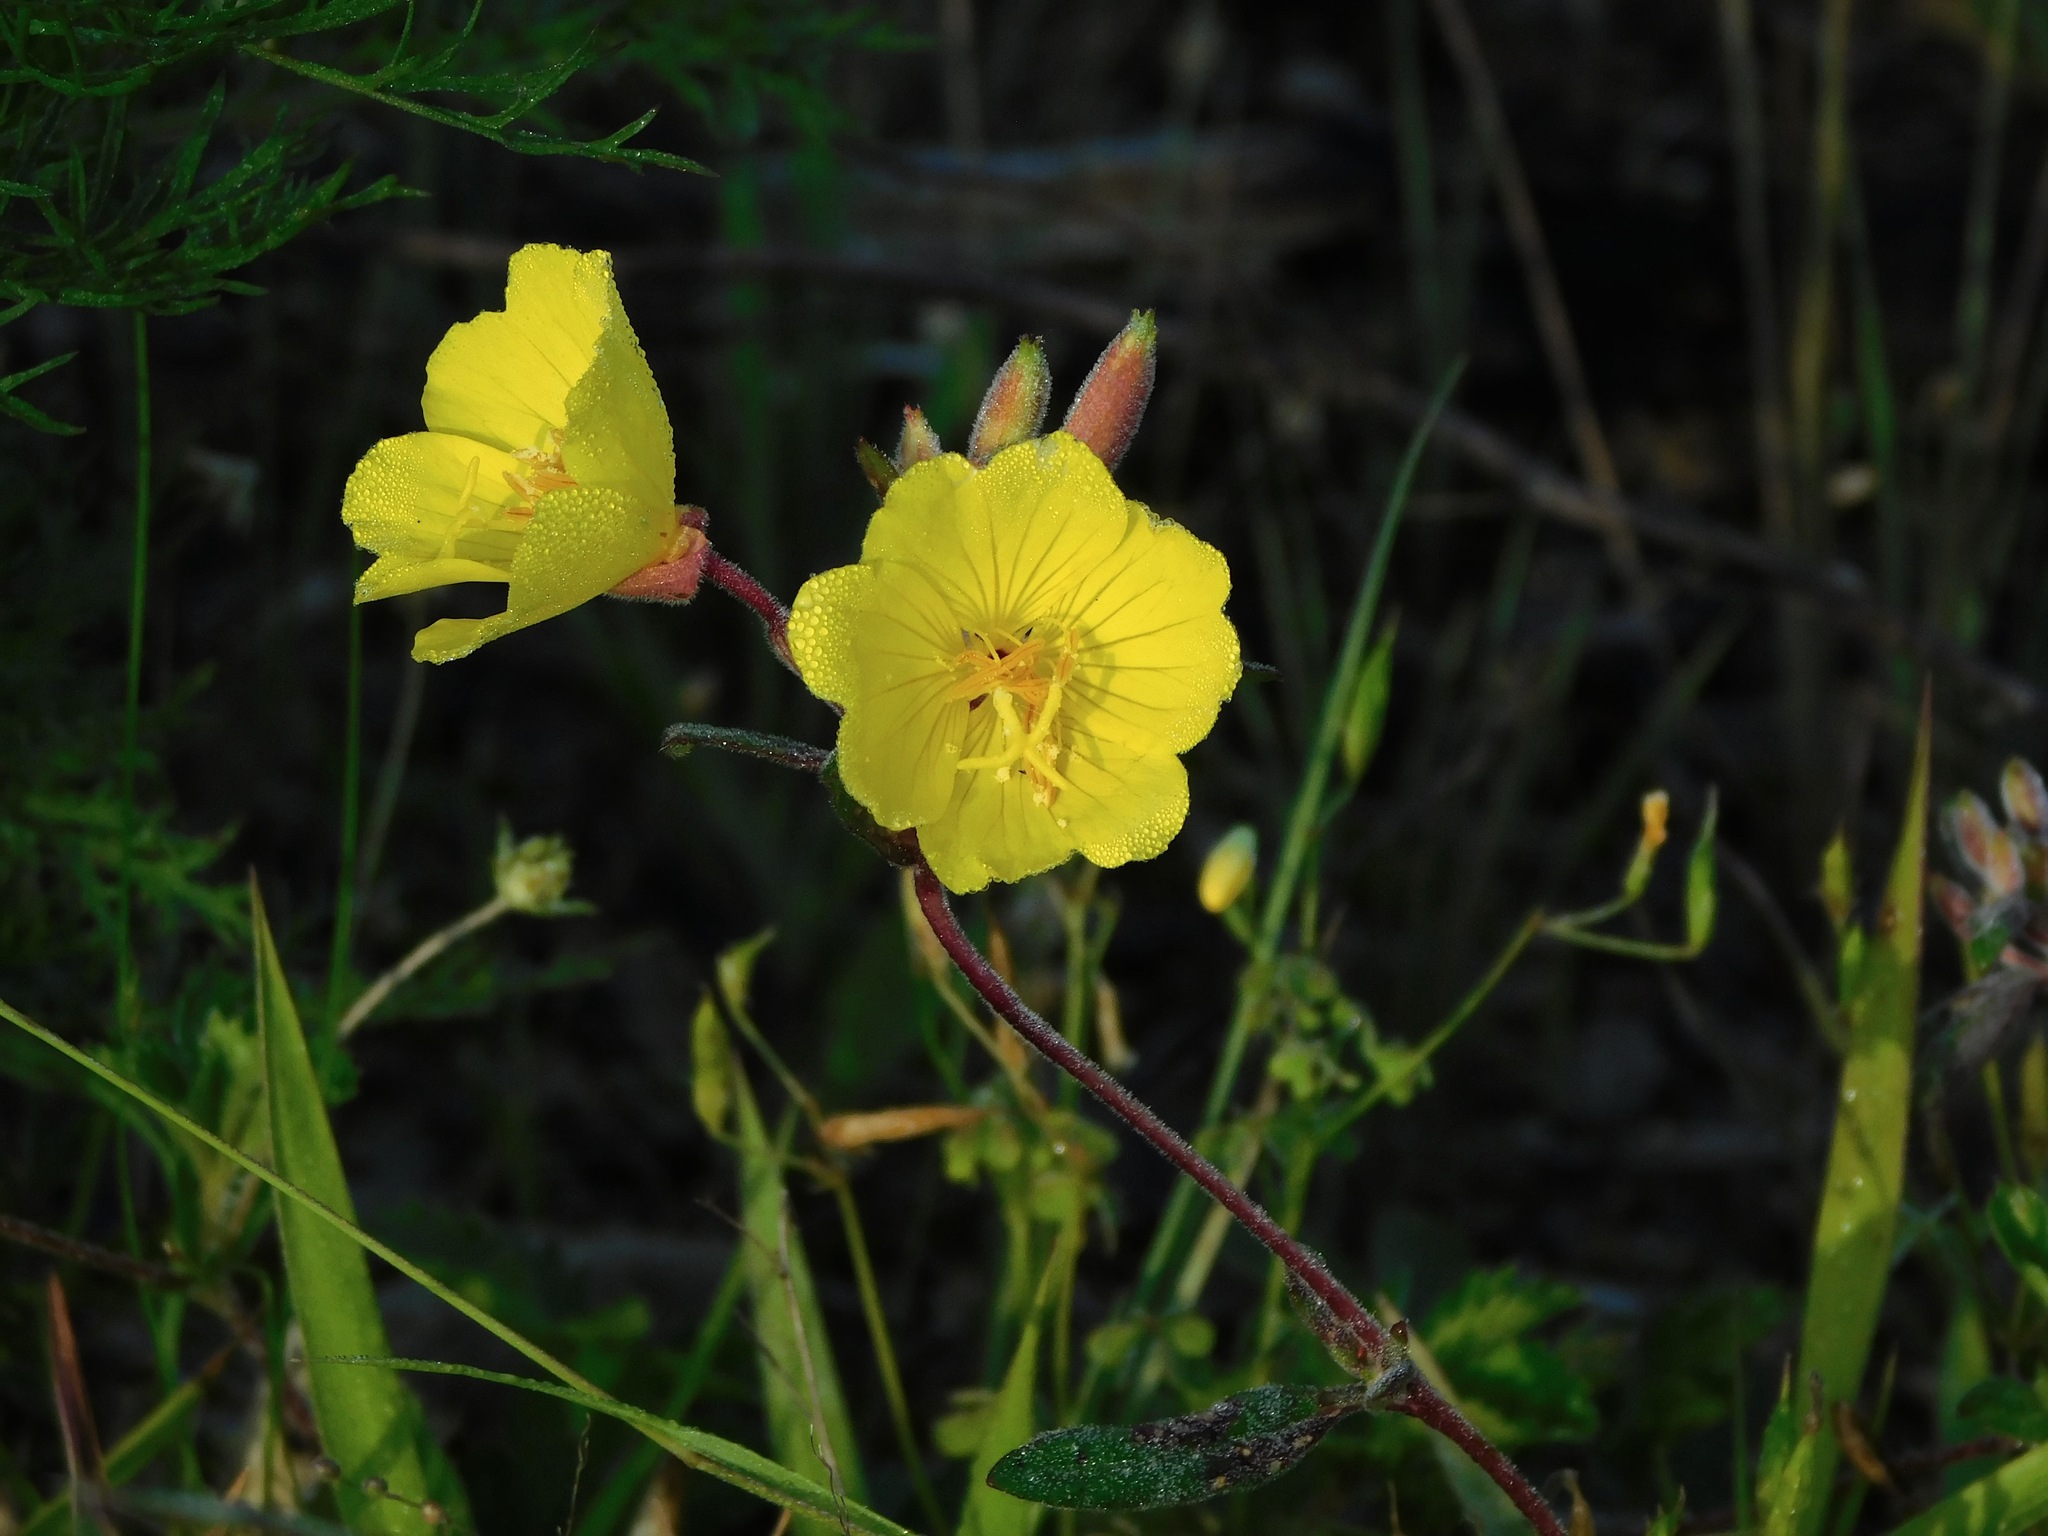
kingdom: Plantae
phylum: Tracheophyta
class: Magnoliopsida
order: Myrtales
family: Onagraceae
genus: Oenothera
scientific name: Oenothera fruticosa
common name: Southern sundrops
